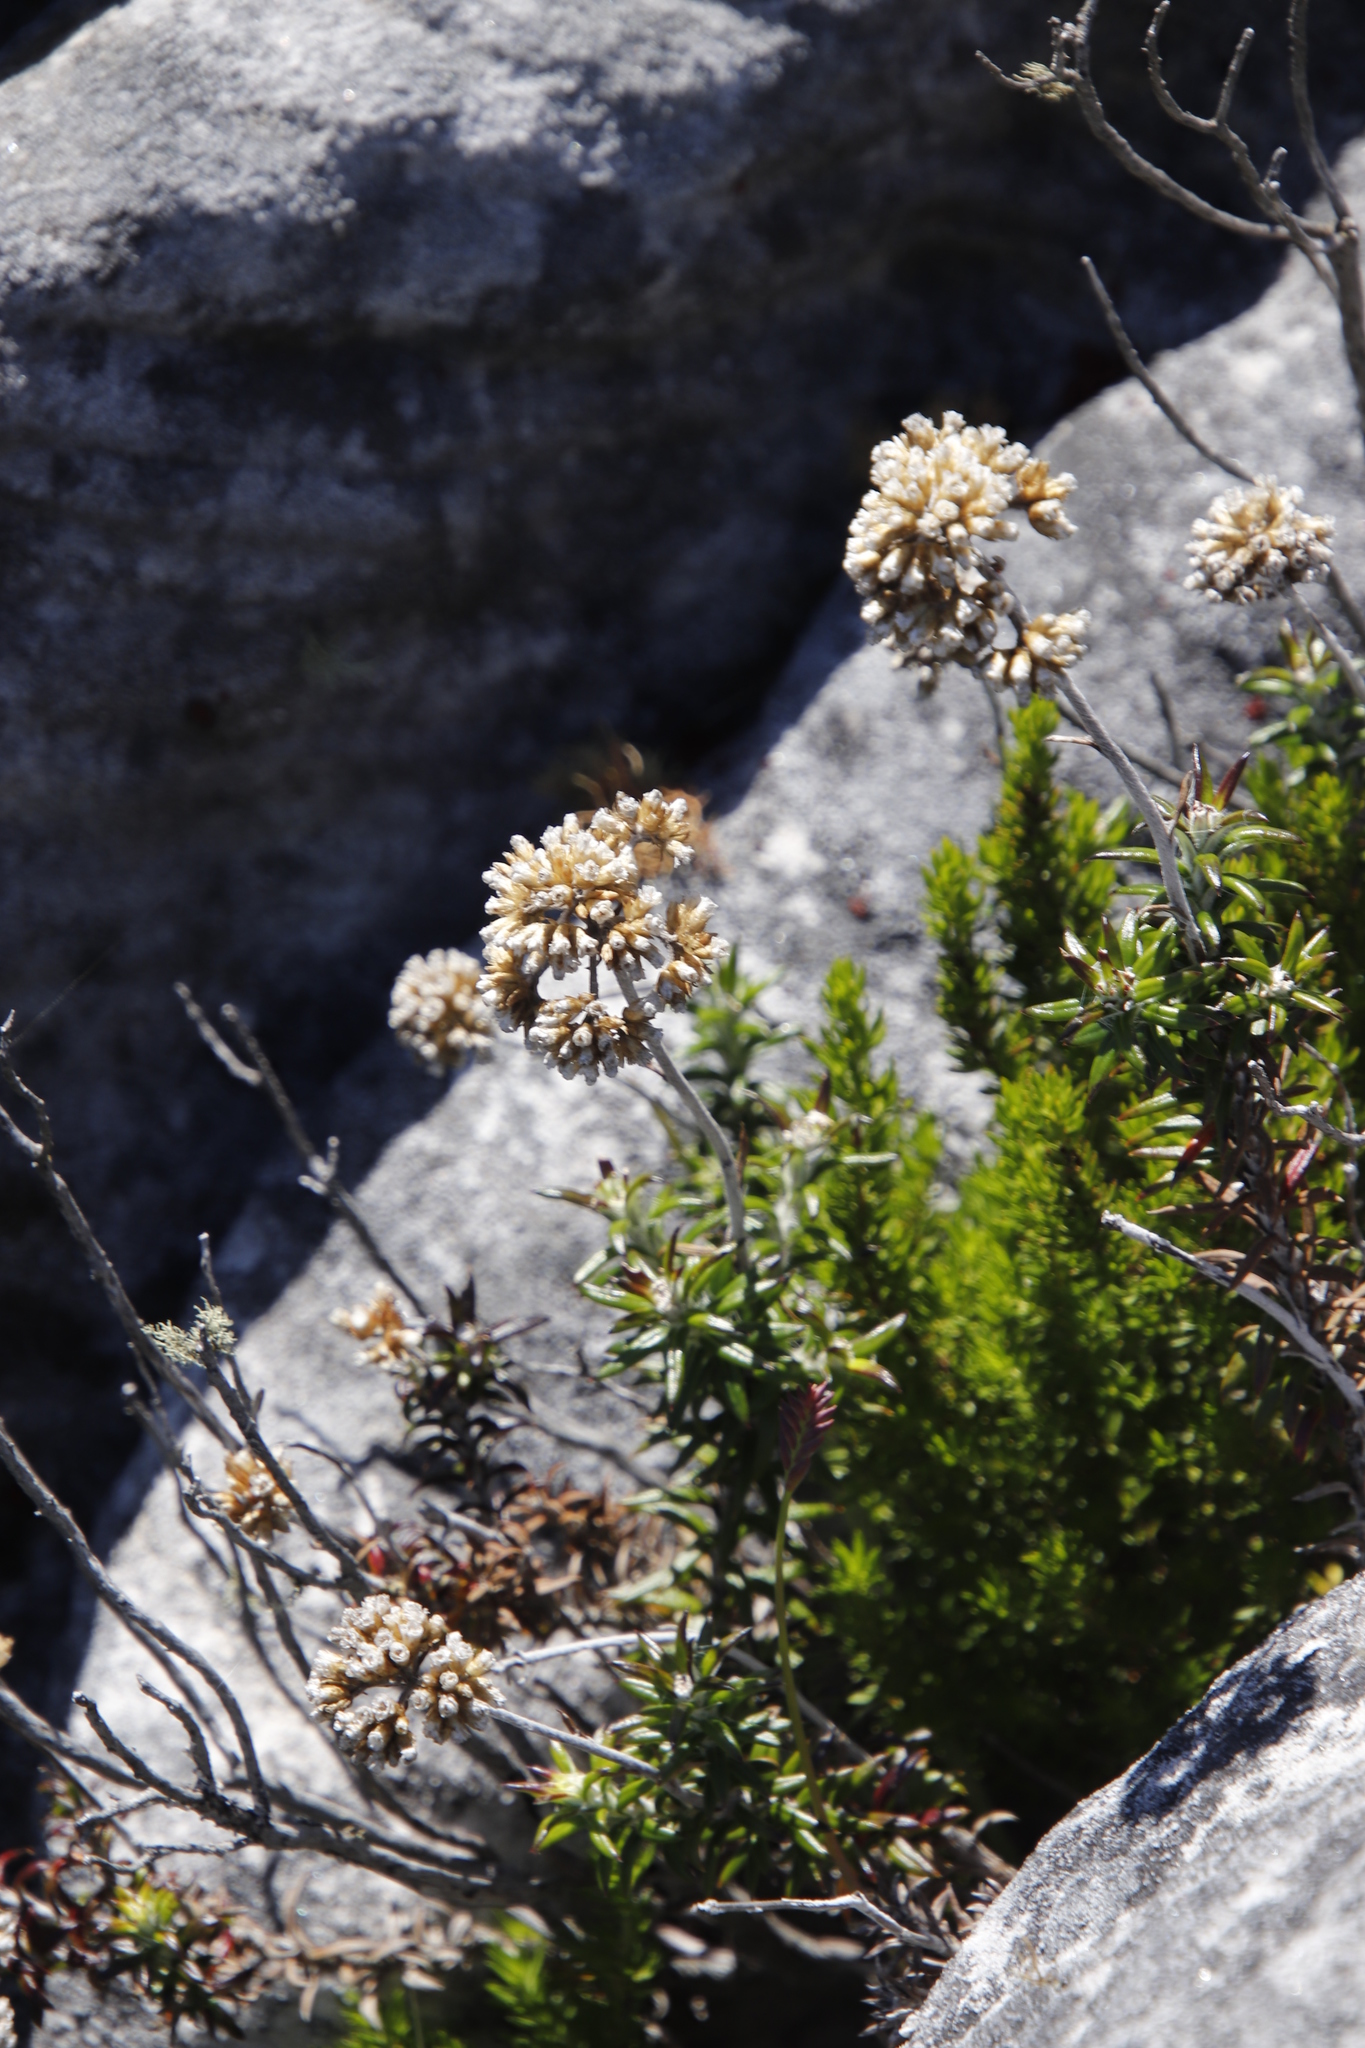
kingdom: Plantae
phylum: Tracheophyta
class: Magnoliopsida
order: Asterales
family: Asteraceae
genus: Anaxeton
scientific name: Anaxeton arborescens
